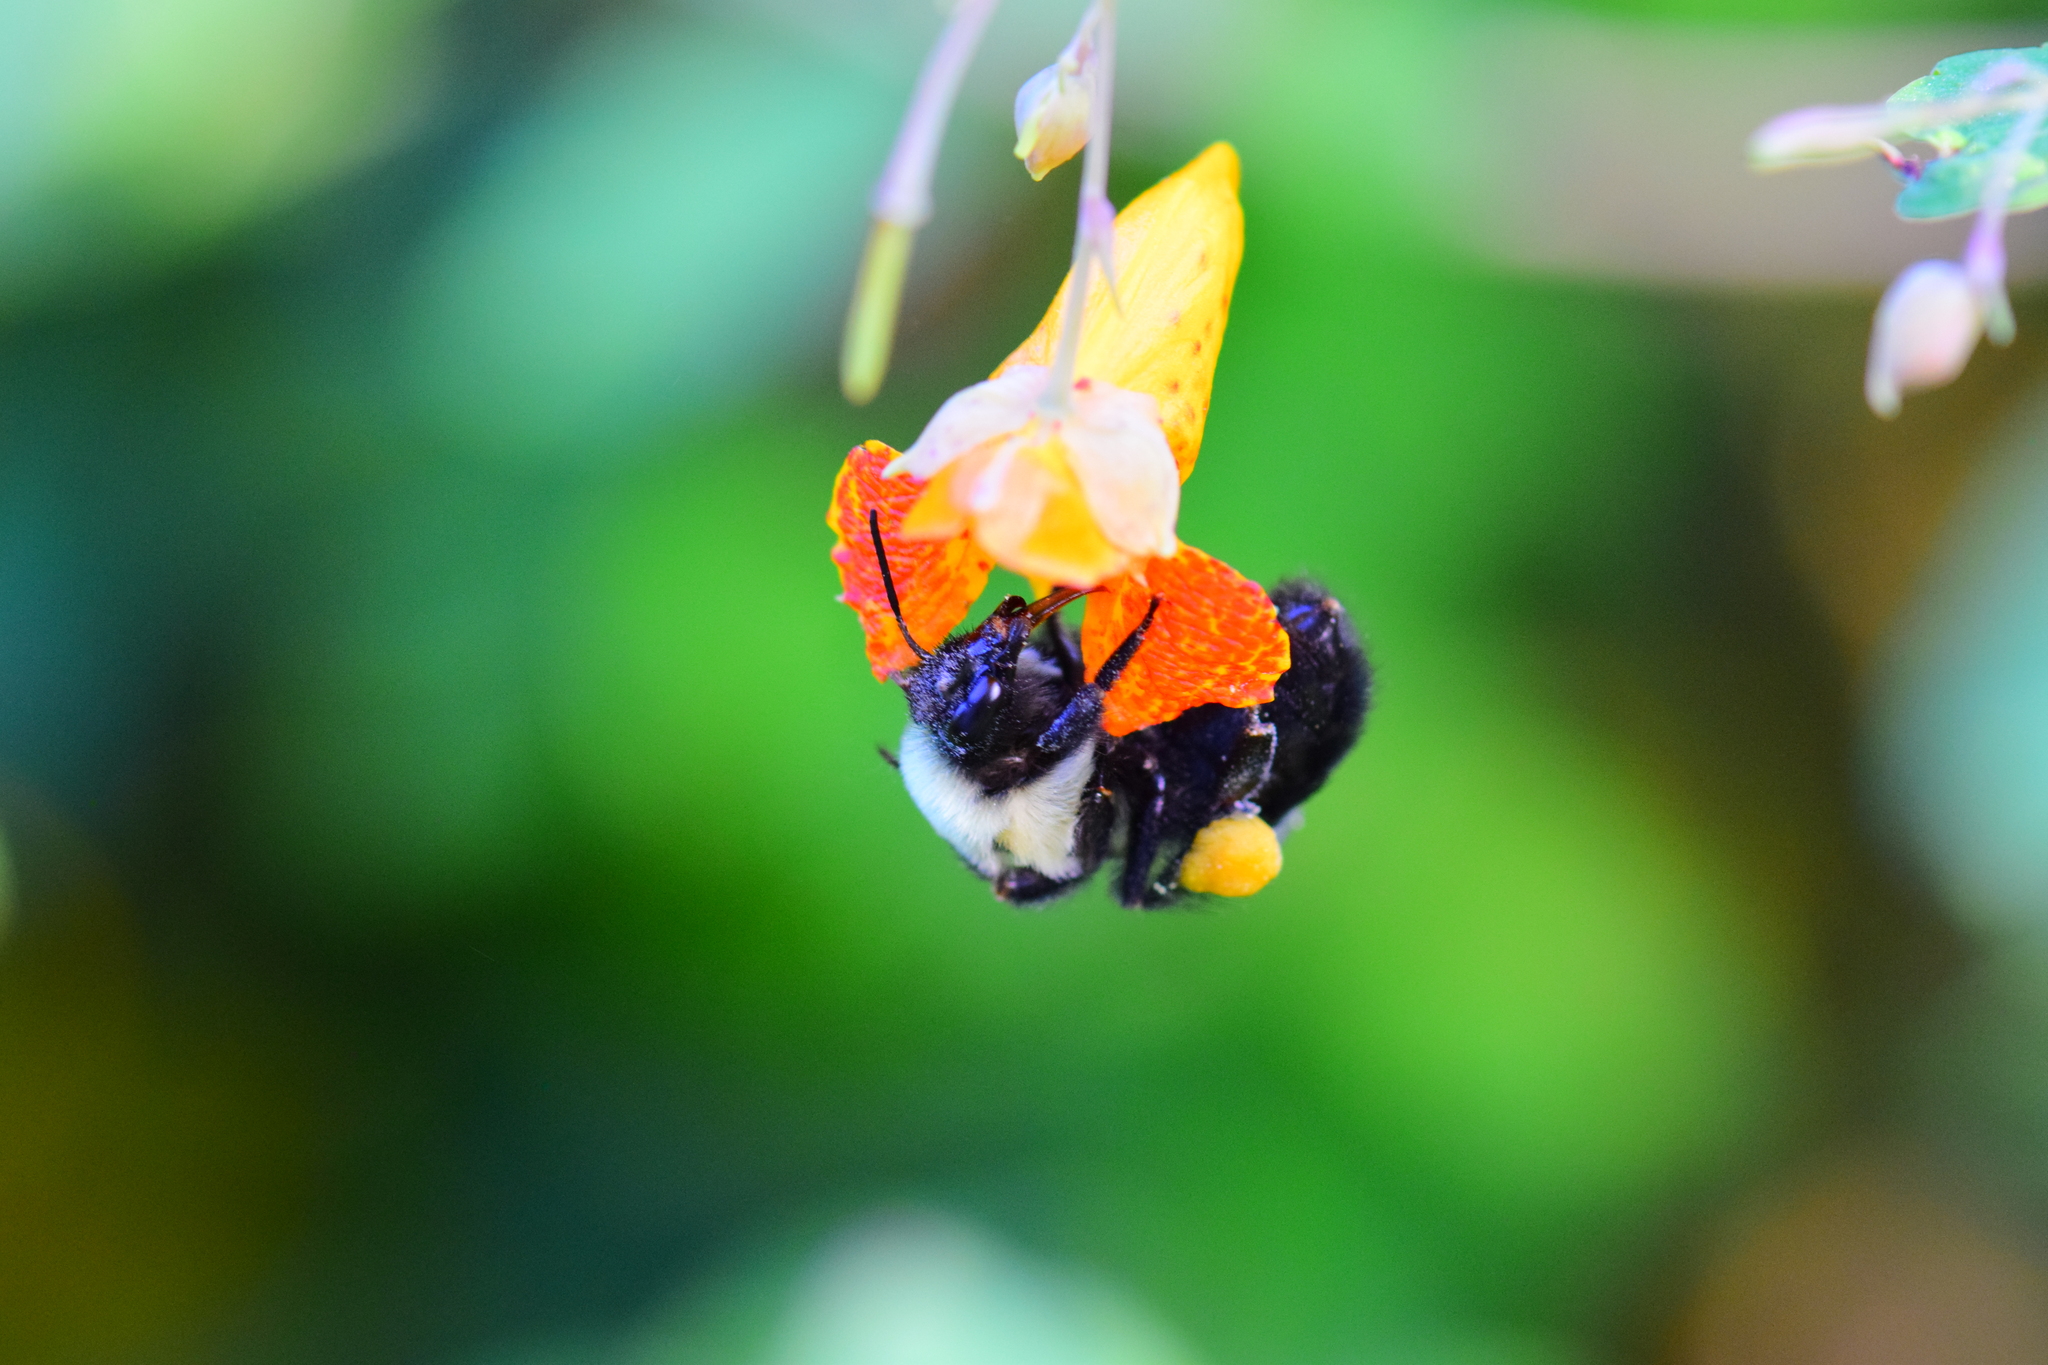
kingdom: Animalia
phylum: Arthropoda
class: Insecta
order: Hymenoptera
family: Apidae
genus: Bombus
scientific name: Bombus impatiens
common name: Common eastern bumble bee
